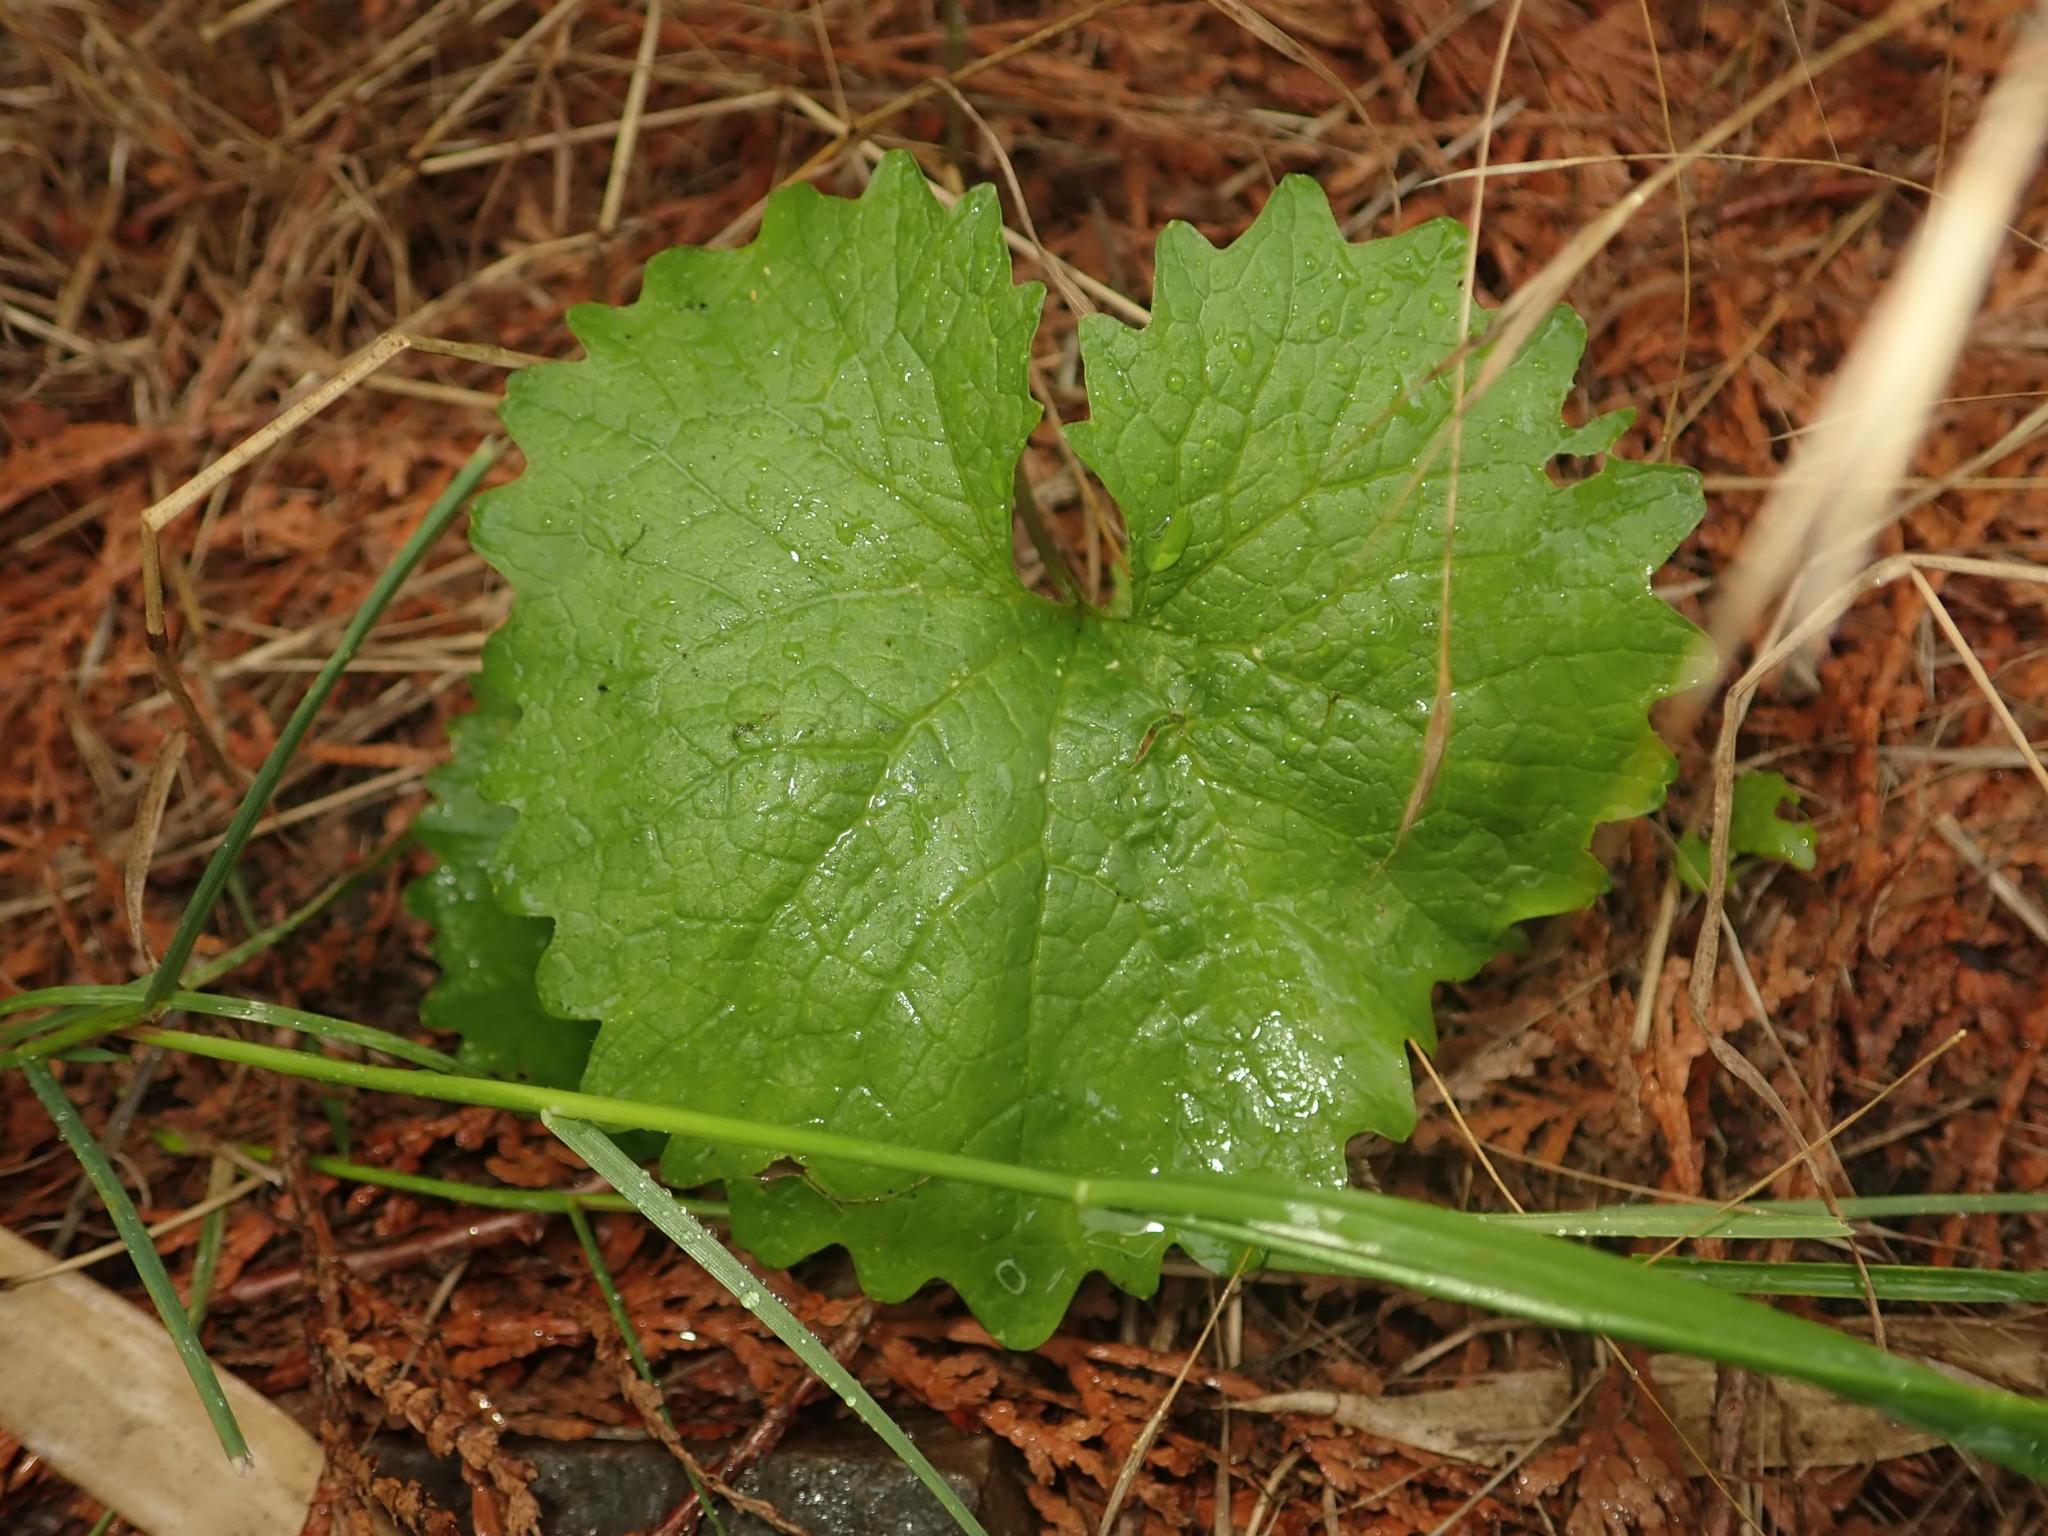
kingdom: Plantae
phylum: Tracheophyta
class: Magnoliopsida
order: Brassicales
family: Brassicaceae
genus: Alliaria
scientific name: Alliaria petiolata
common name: Garlic mustard
